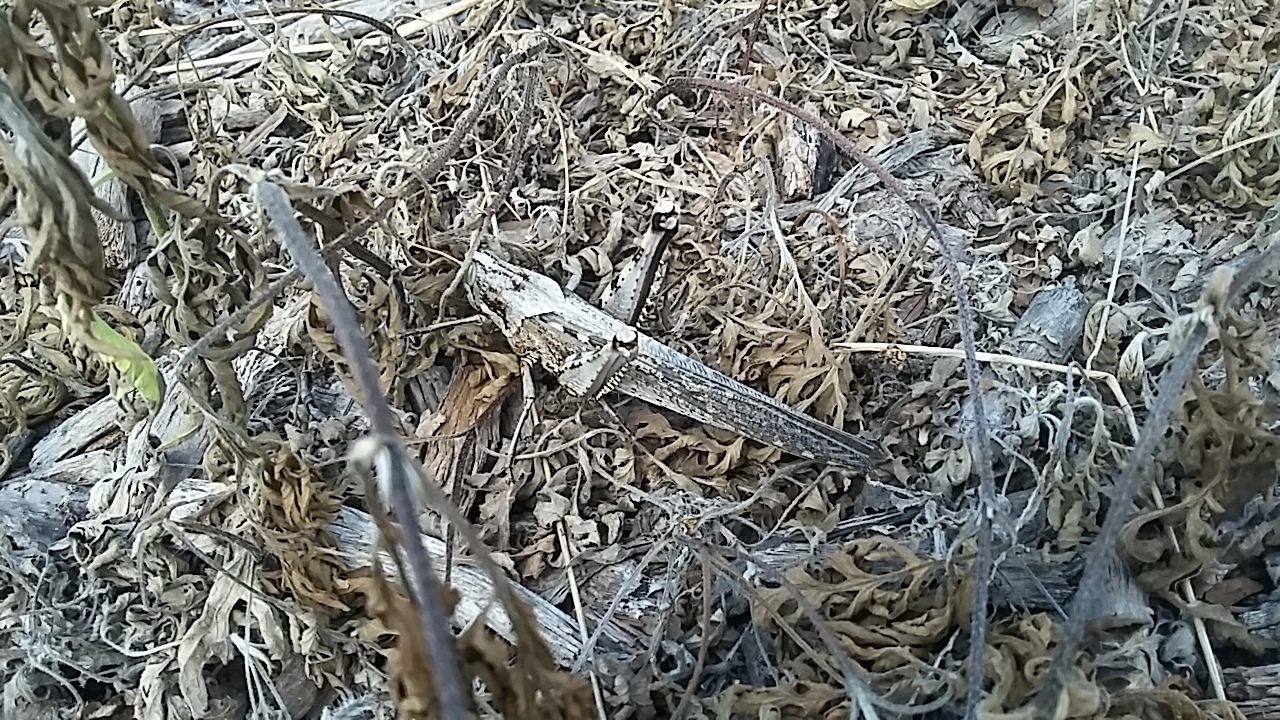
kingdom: Animalia
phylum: Arthropoda
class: Insecta
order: Orthoptera
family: Acrididae
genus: Schistocerca
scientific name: Schistocerca nitens
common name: Vagrant grasshopper
